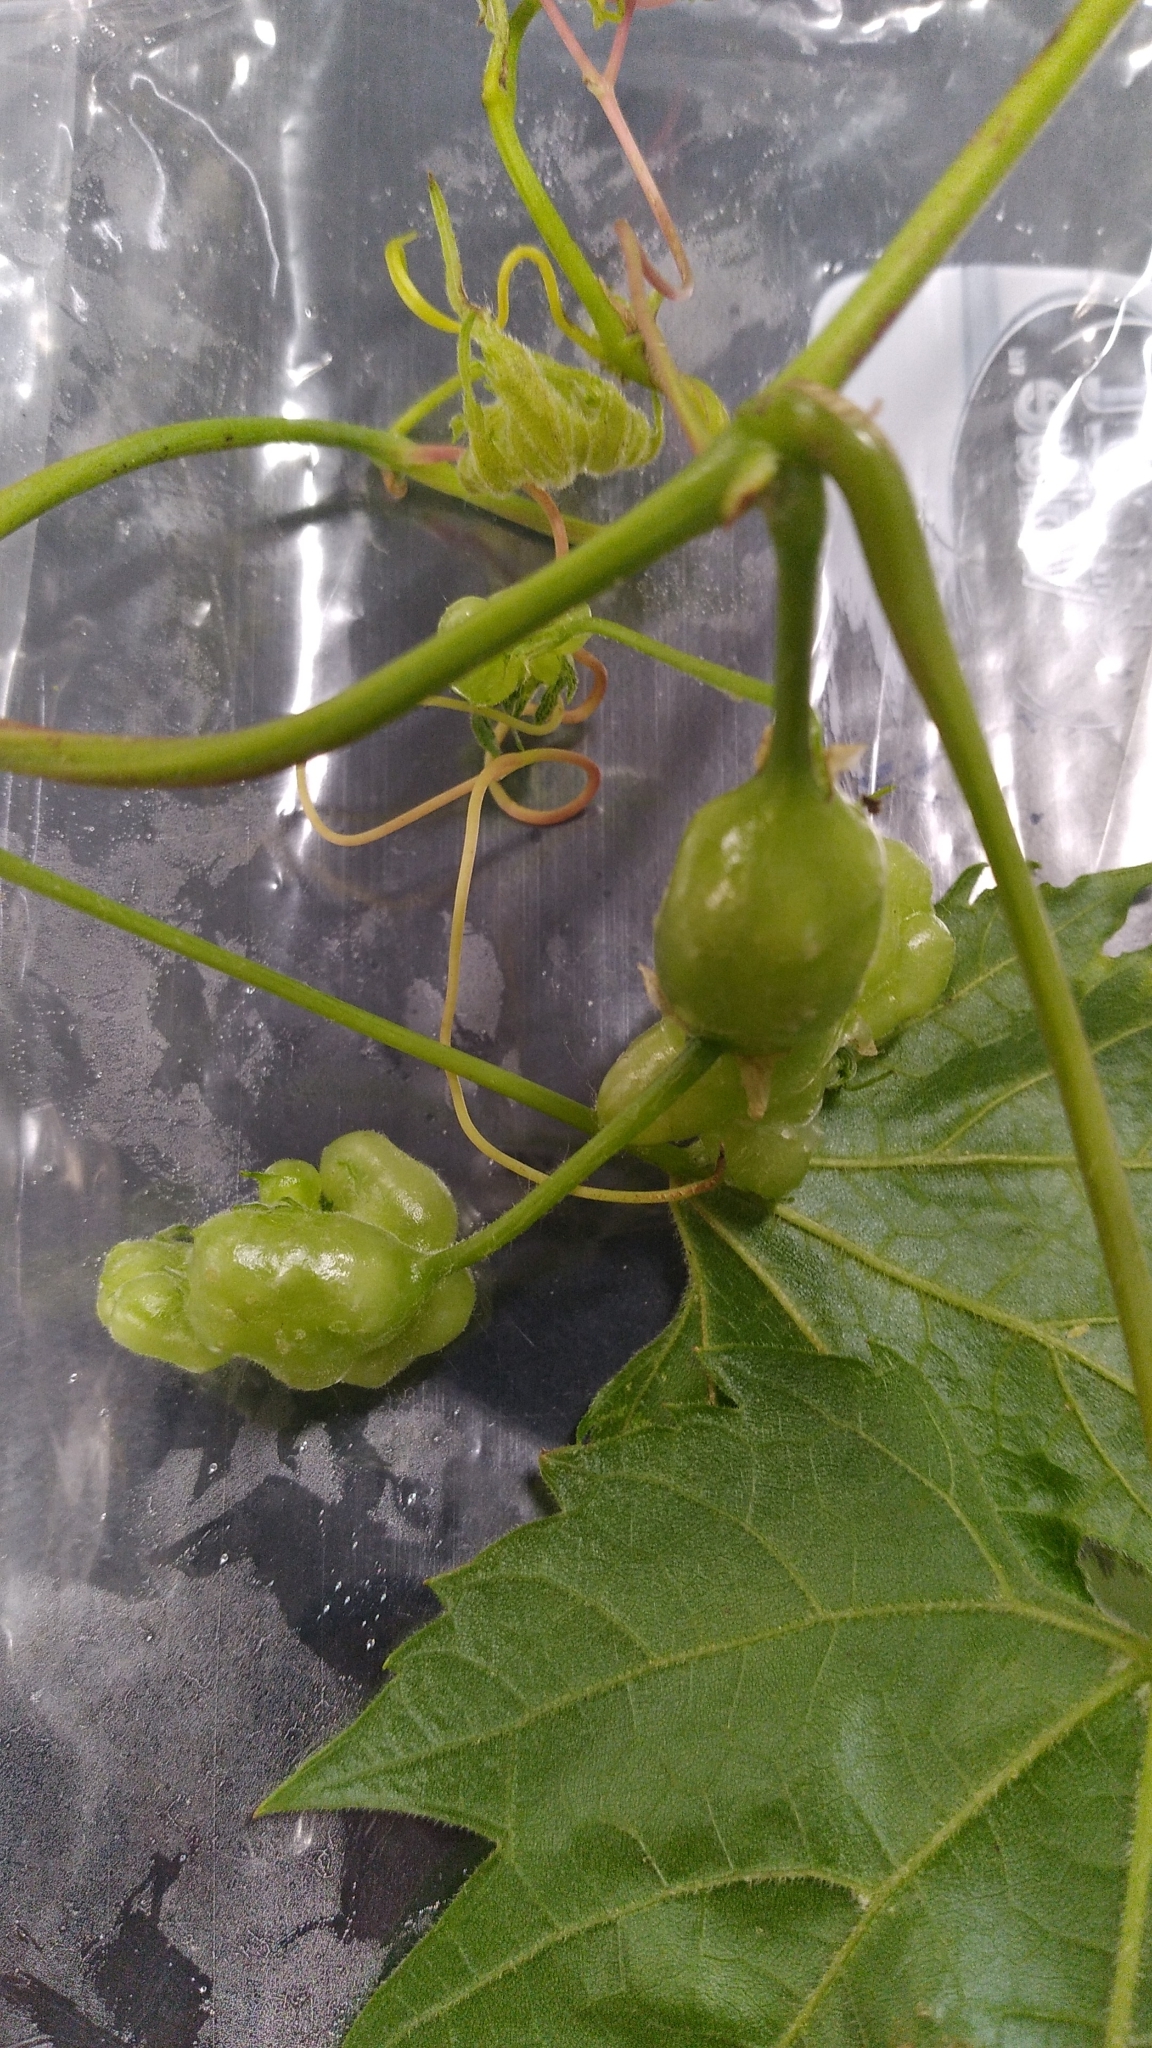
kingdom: Animalia
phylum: Arthropoda
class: Insecta
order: Diptera
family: Cecidomyiidae
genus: Vitisiella
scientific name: Vitisiella brevicauda
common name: Grape tumid gallmaker midge
